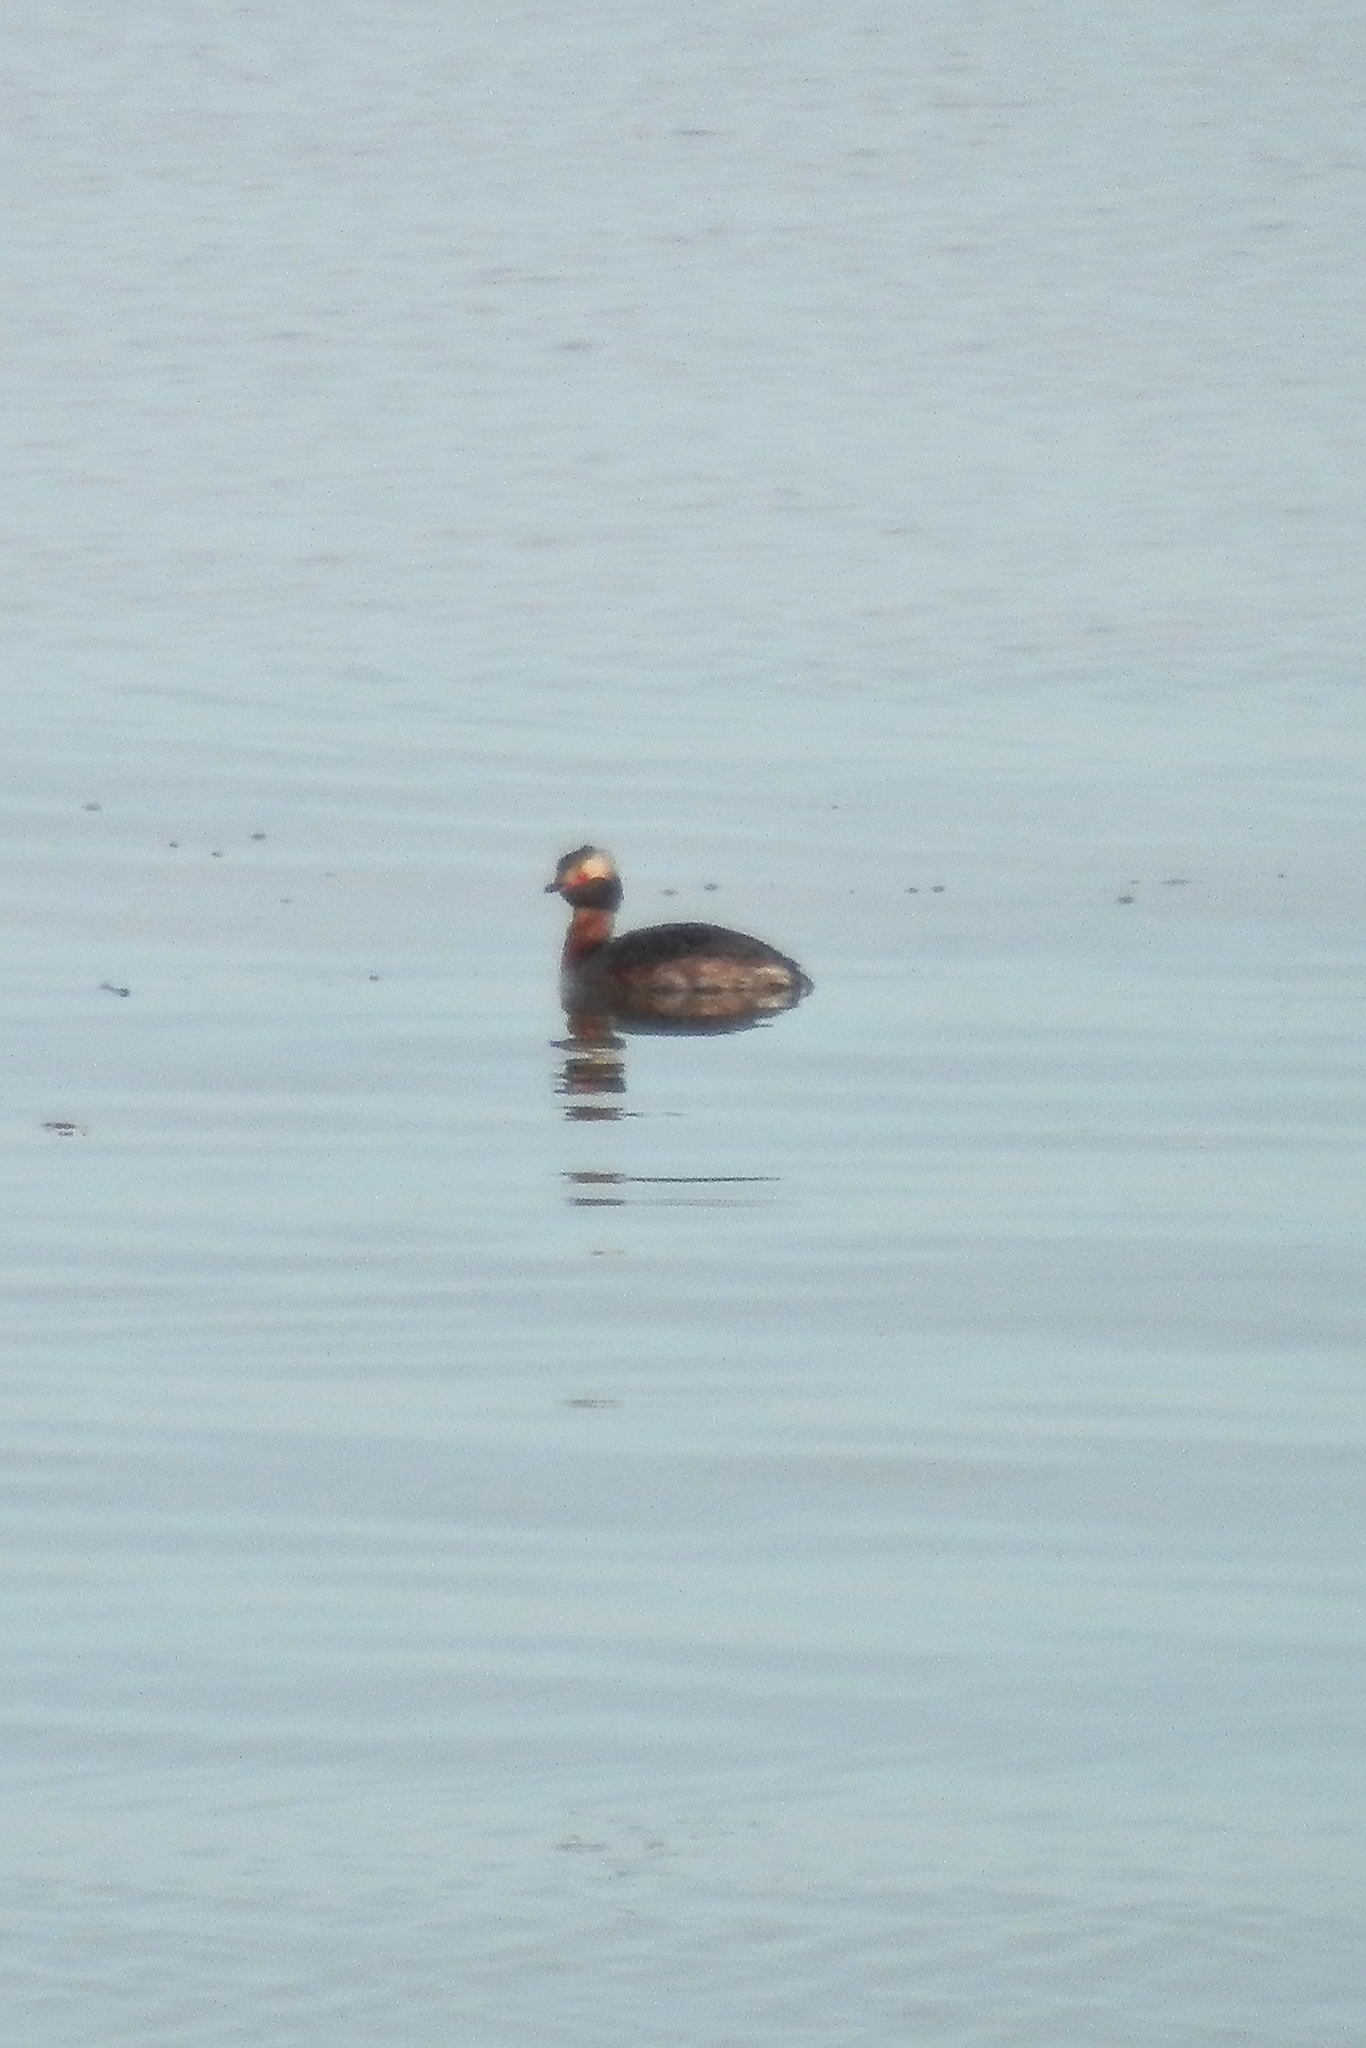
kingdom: Animalia
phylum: Chordata
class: Aves
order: Podicipediformes
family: Podicipedidae
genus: Podiceps
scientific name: Podiceps auritus
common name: Horned grebe
